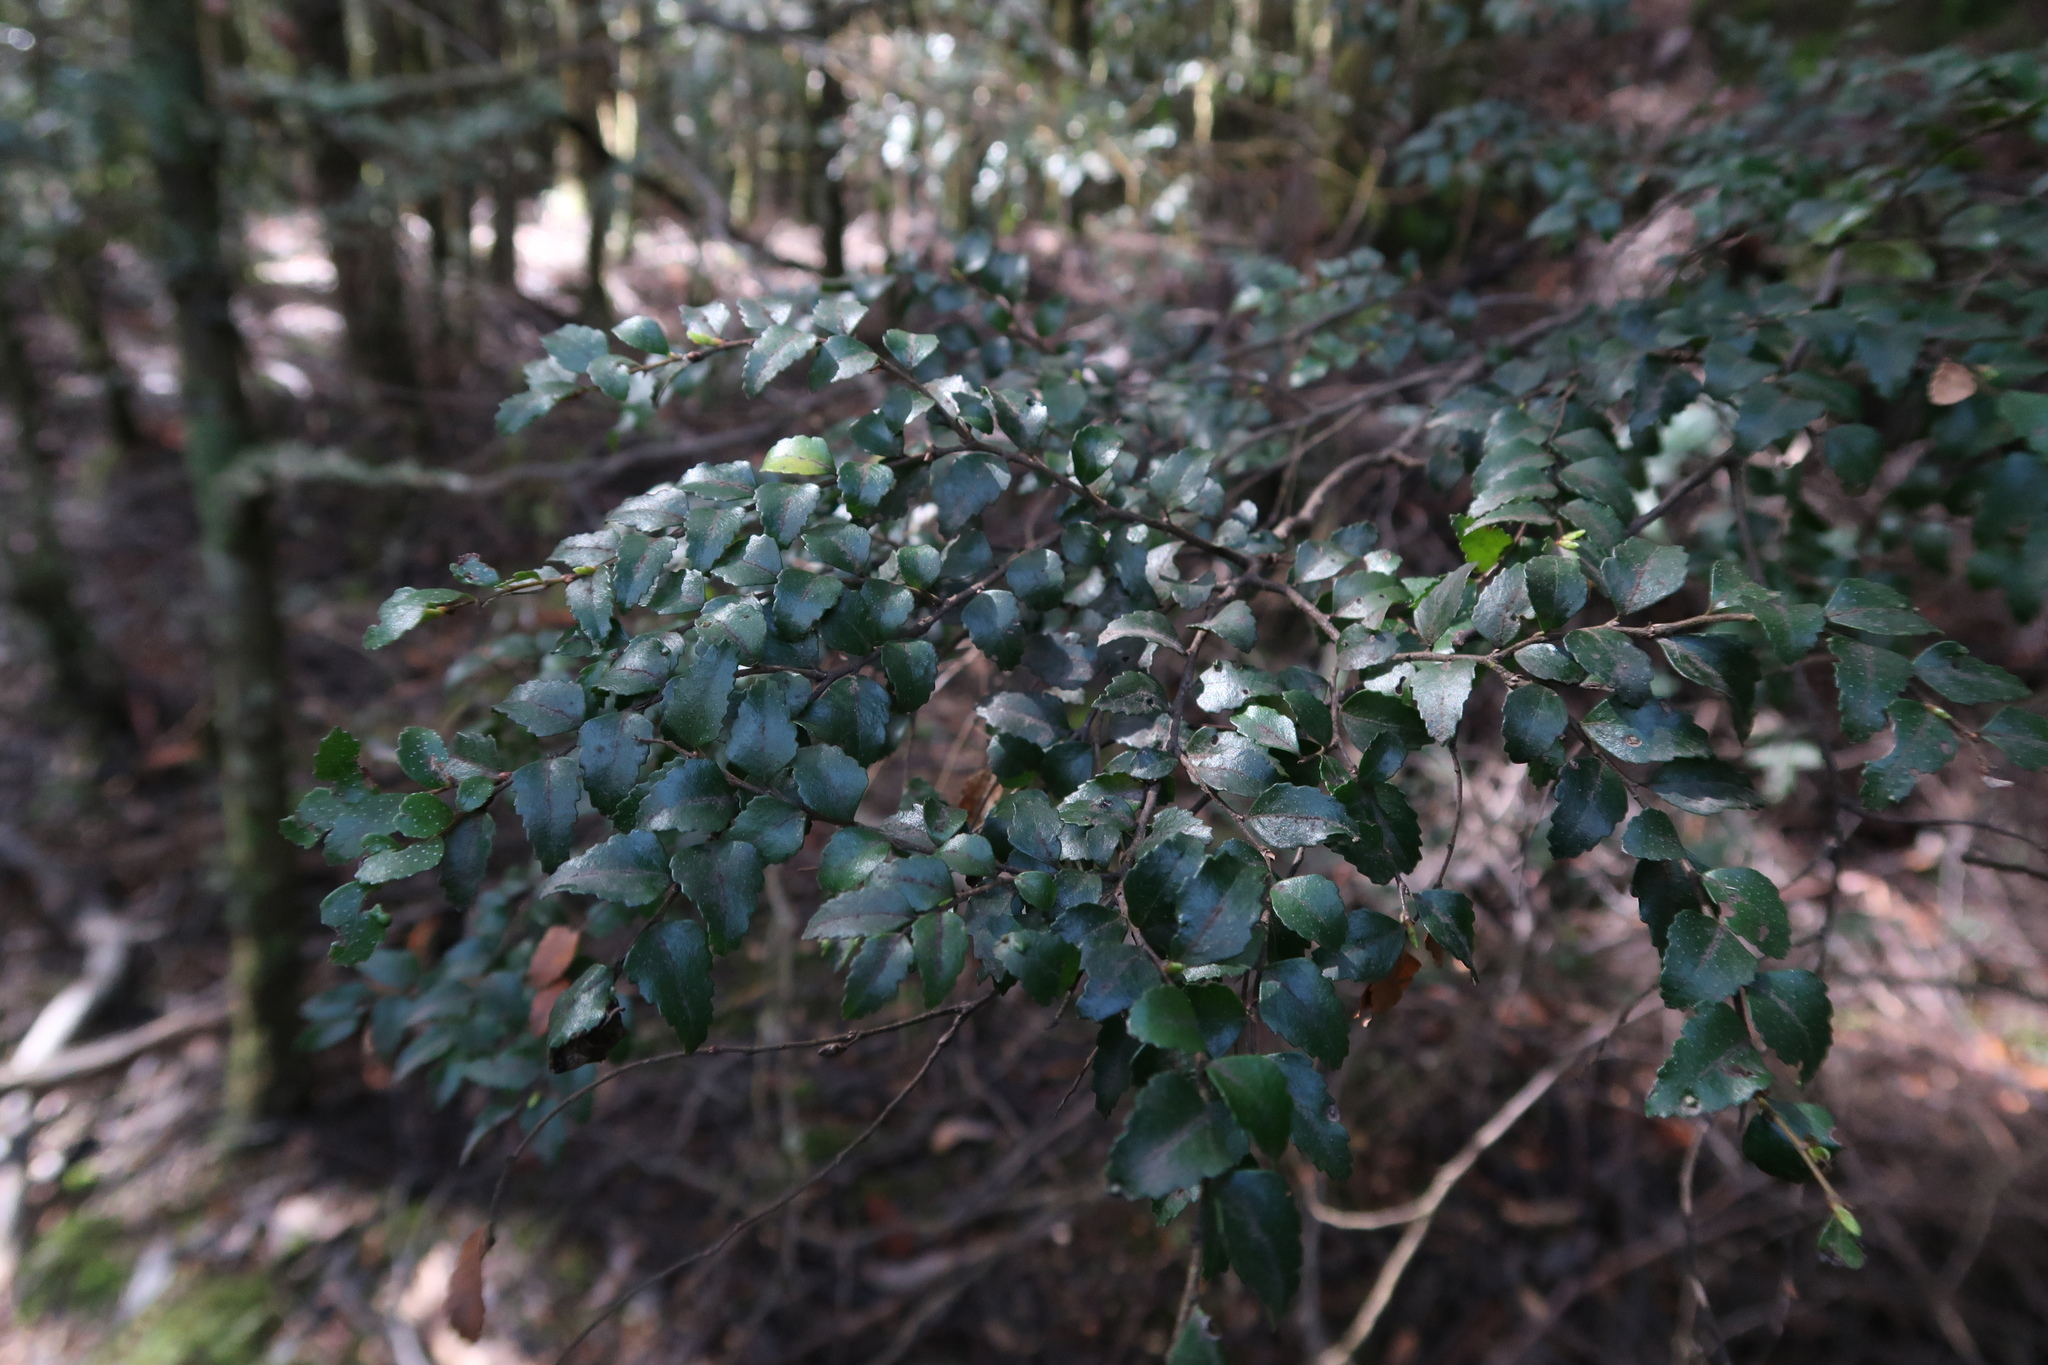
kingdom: Plantae
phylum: Tracheophyta
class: Magnoliopsida
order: Fagales
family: Nothofagaceae
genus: Nothofagus
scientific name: Nothofagus cunninghamii
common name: Myrtle beech
